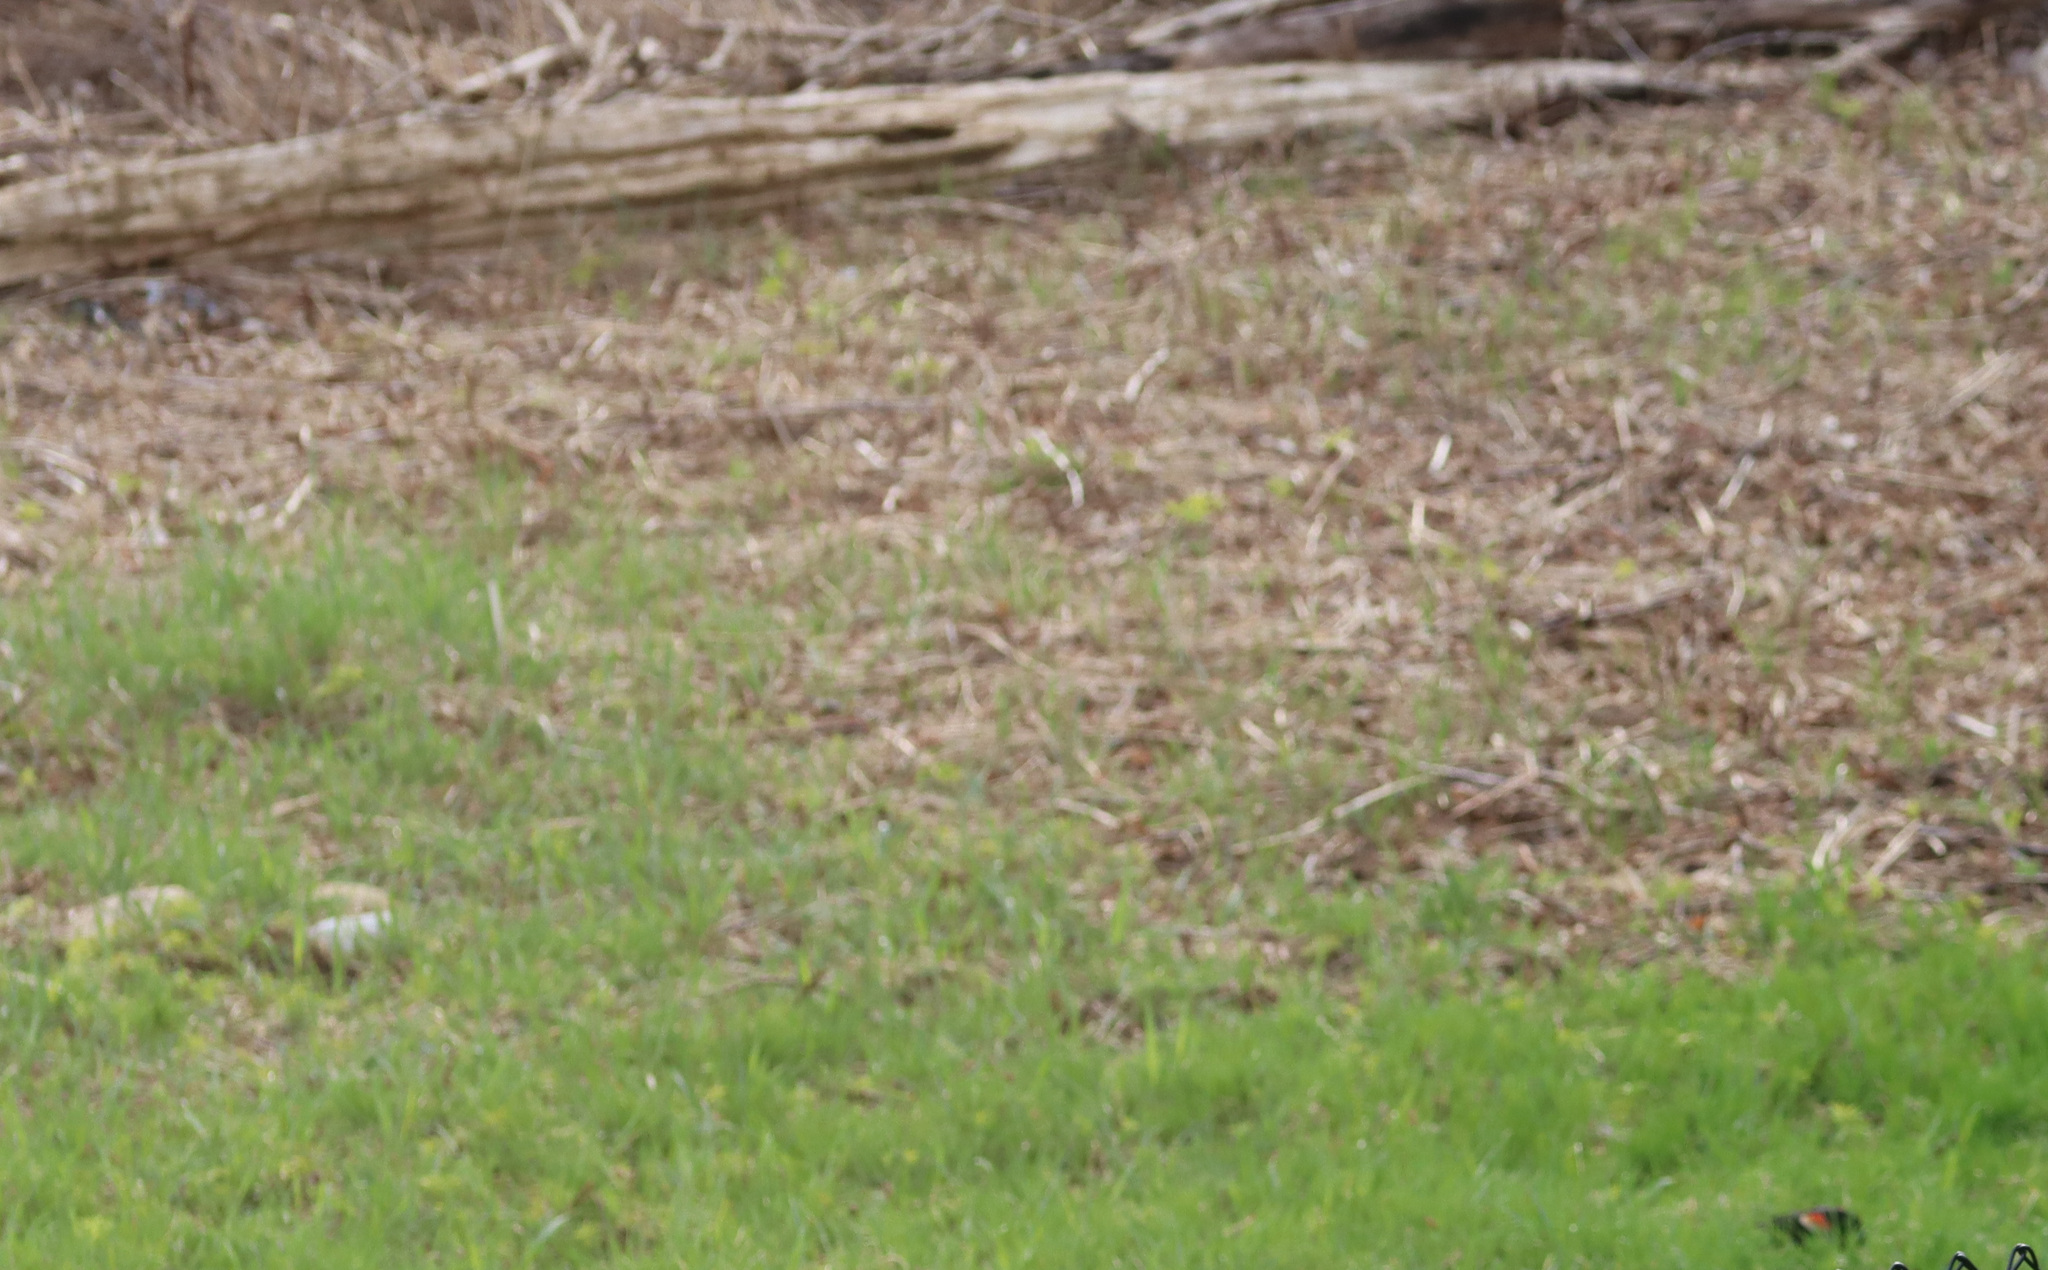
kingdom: Animalia
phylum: Chordata
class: Aves
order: Passeriformes
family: Icteridae
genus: Agelaius
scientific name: Agelaius phoeniceus
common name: Red-winged blackbird
